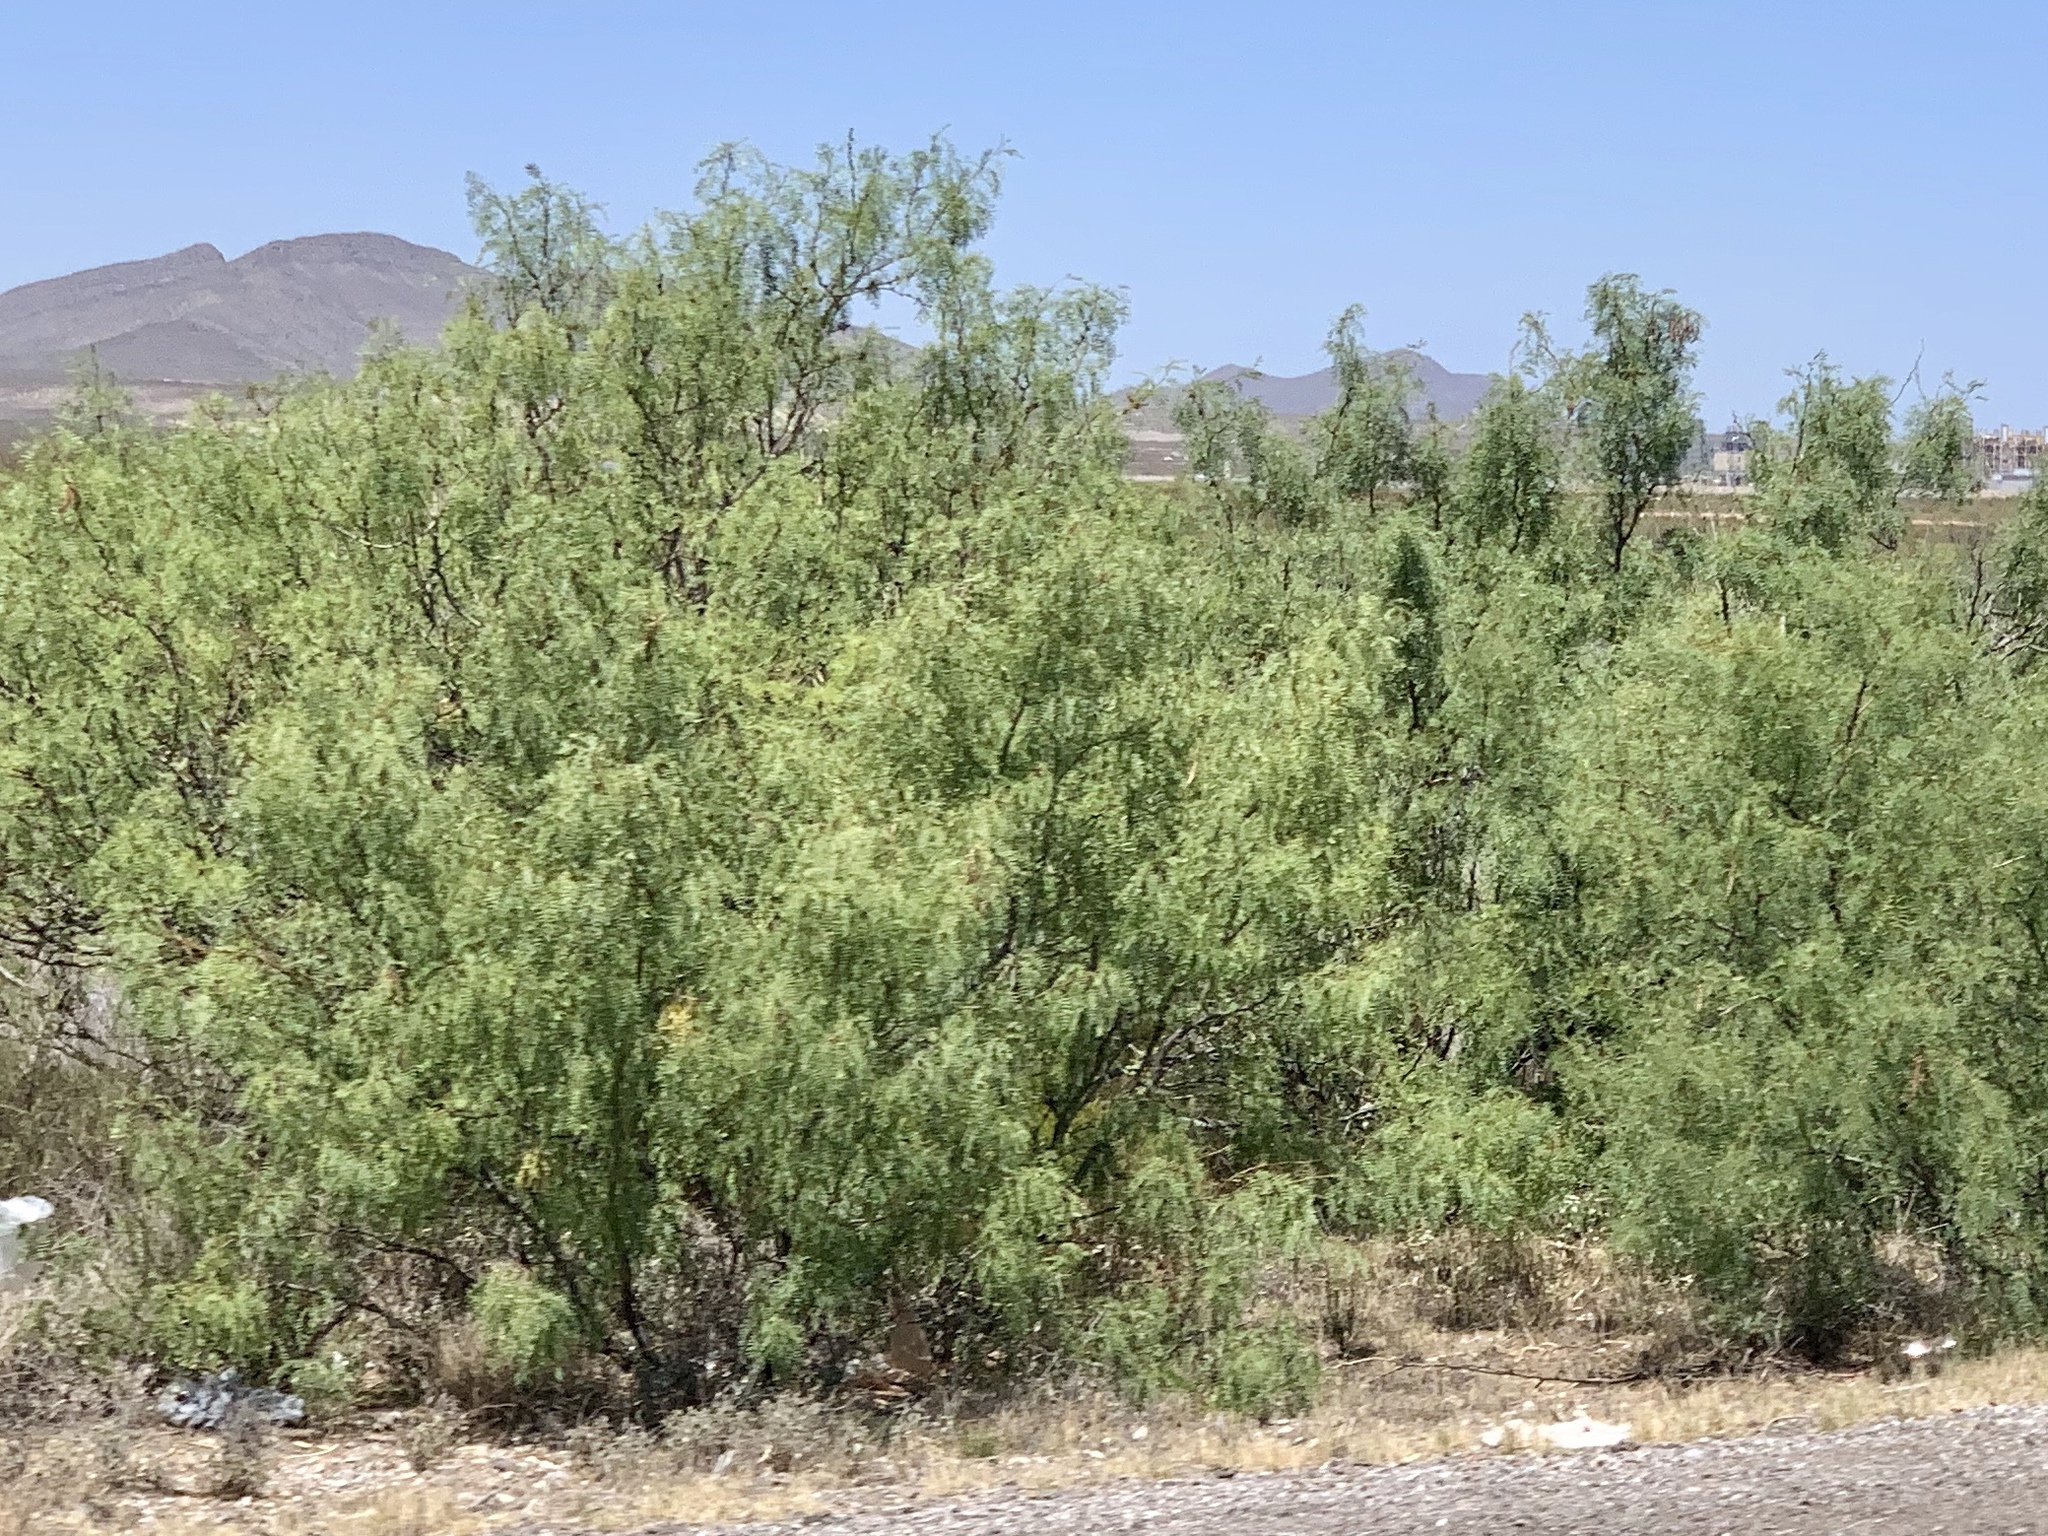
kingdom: Plantae
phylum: Tracheophyta
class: Magnoliopsida
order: Fabales
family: Fabaceae
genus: Prosopis
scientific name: Prosopis glandulosa
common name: Honey mesquite
